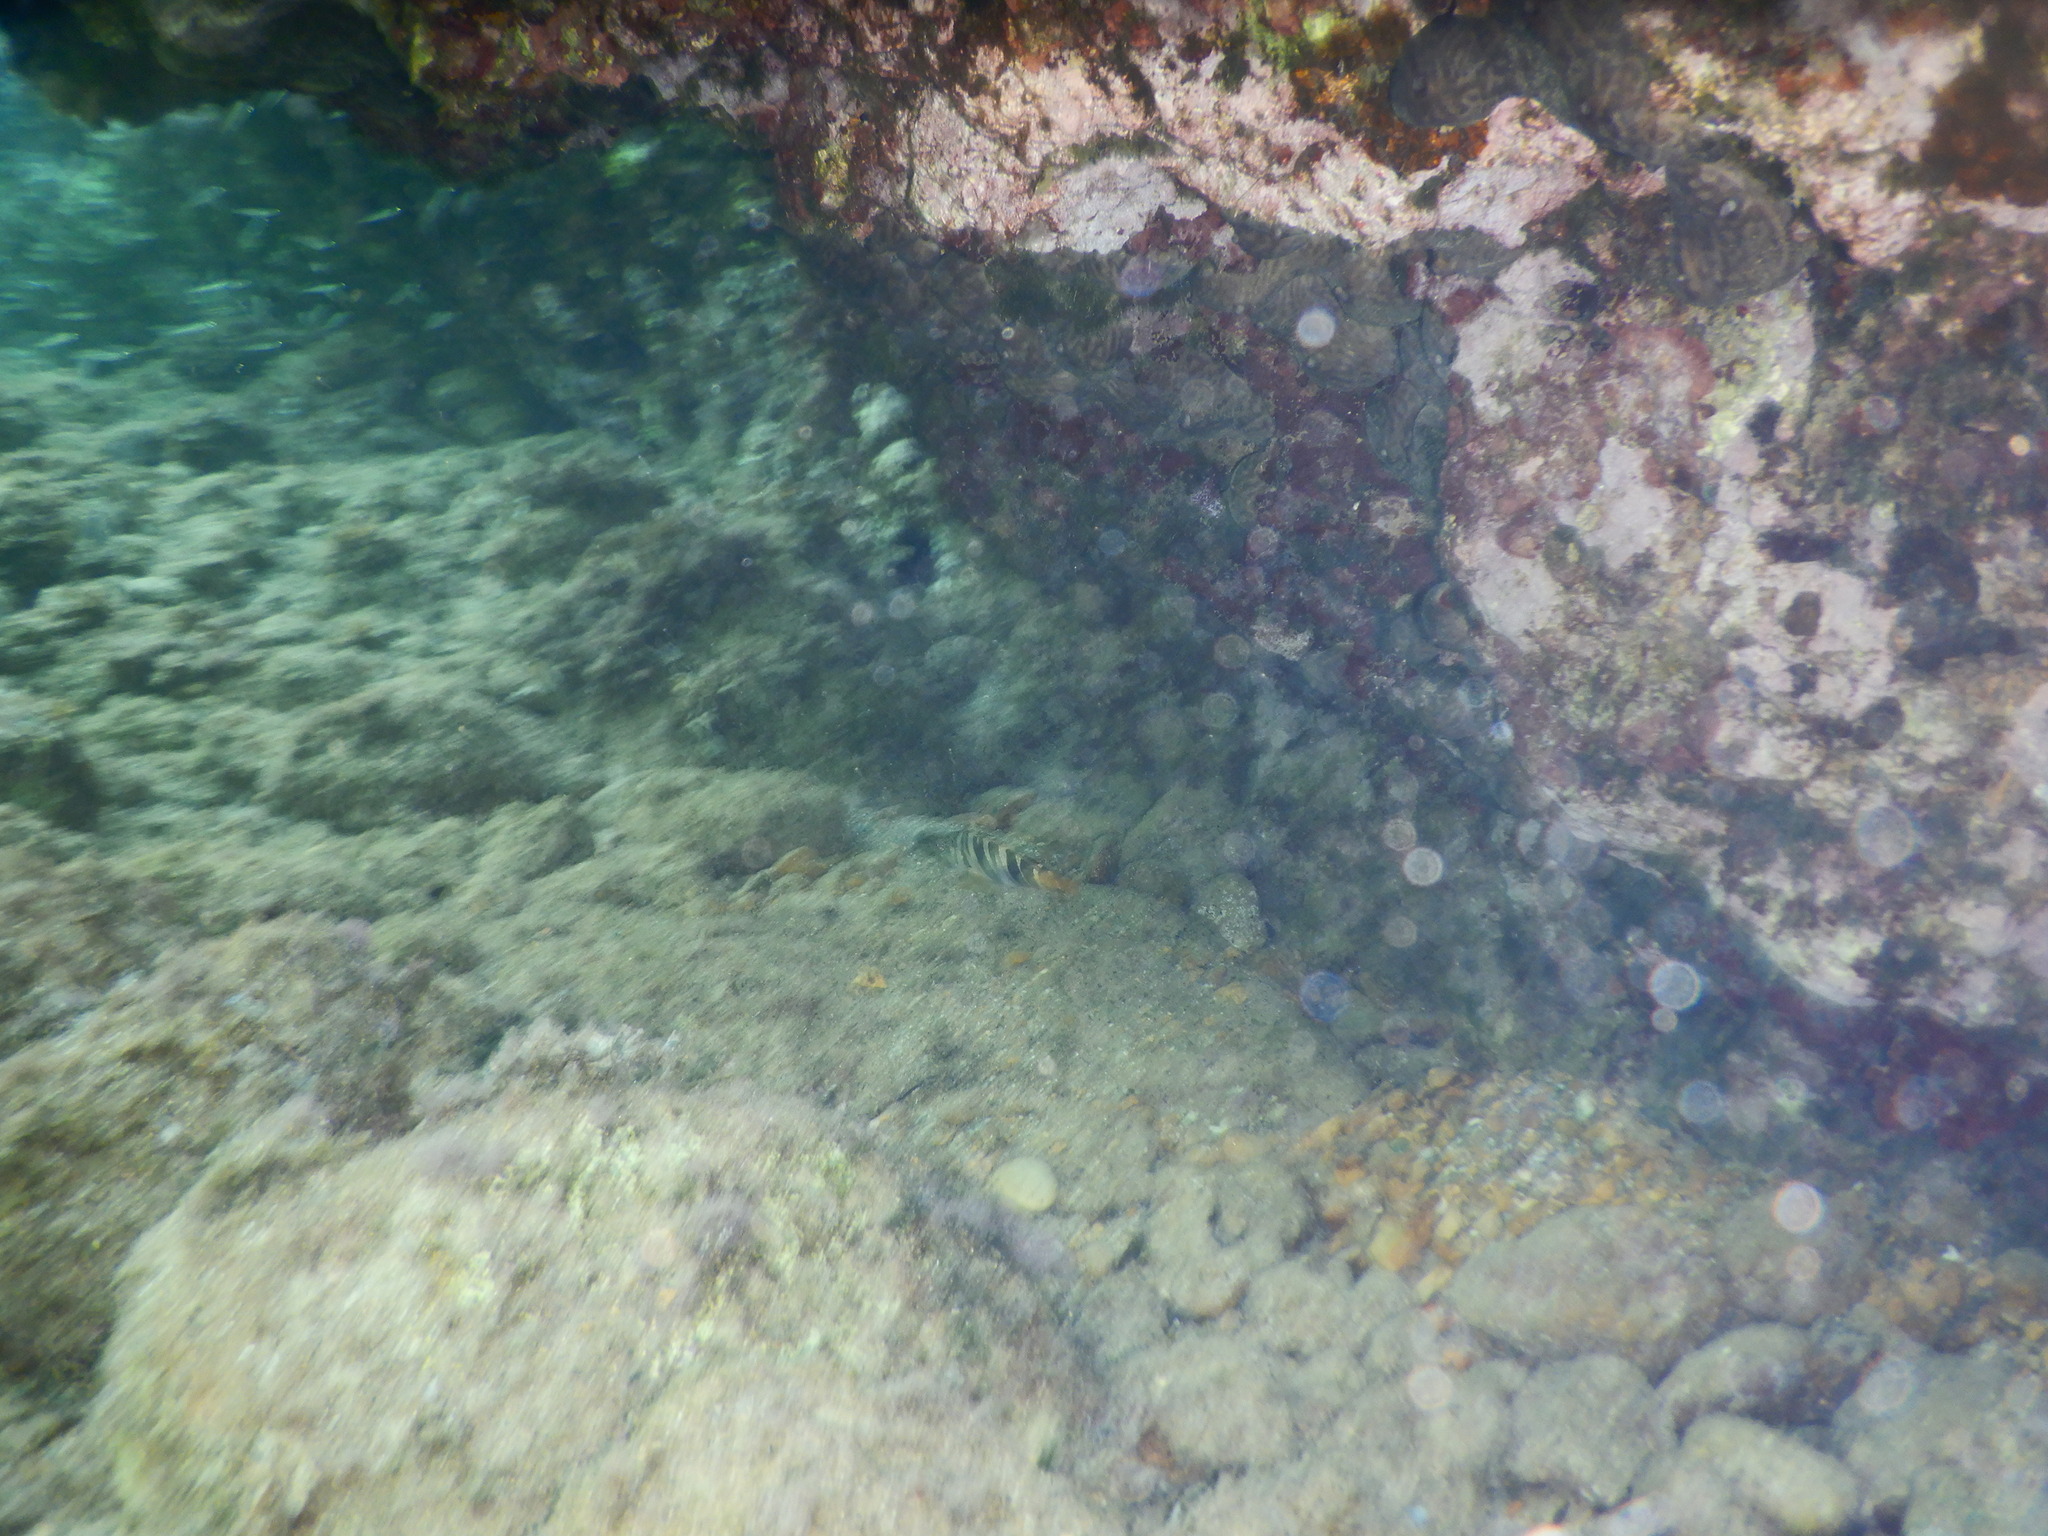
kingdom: Animalia
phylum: Chordata
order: Perciformes
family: Serranidae
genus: Serranus
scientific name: Serranus scriba
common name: Painted comber
